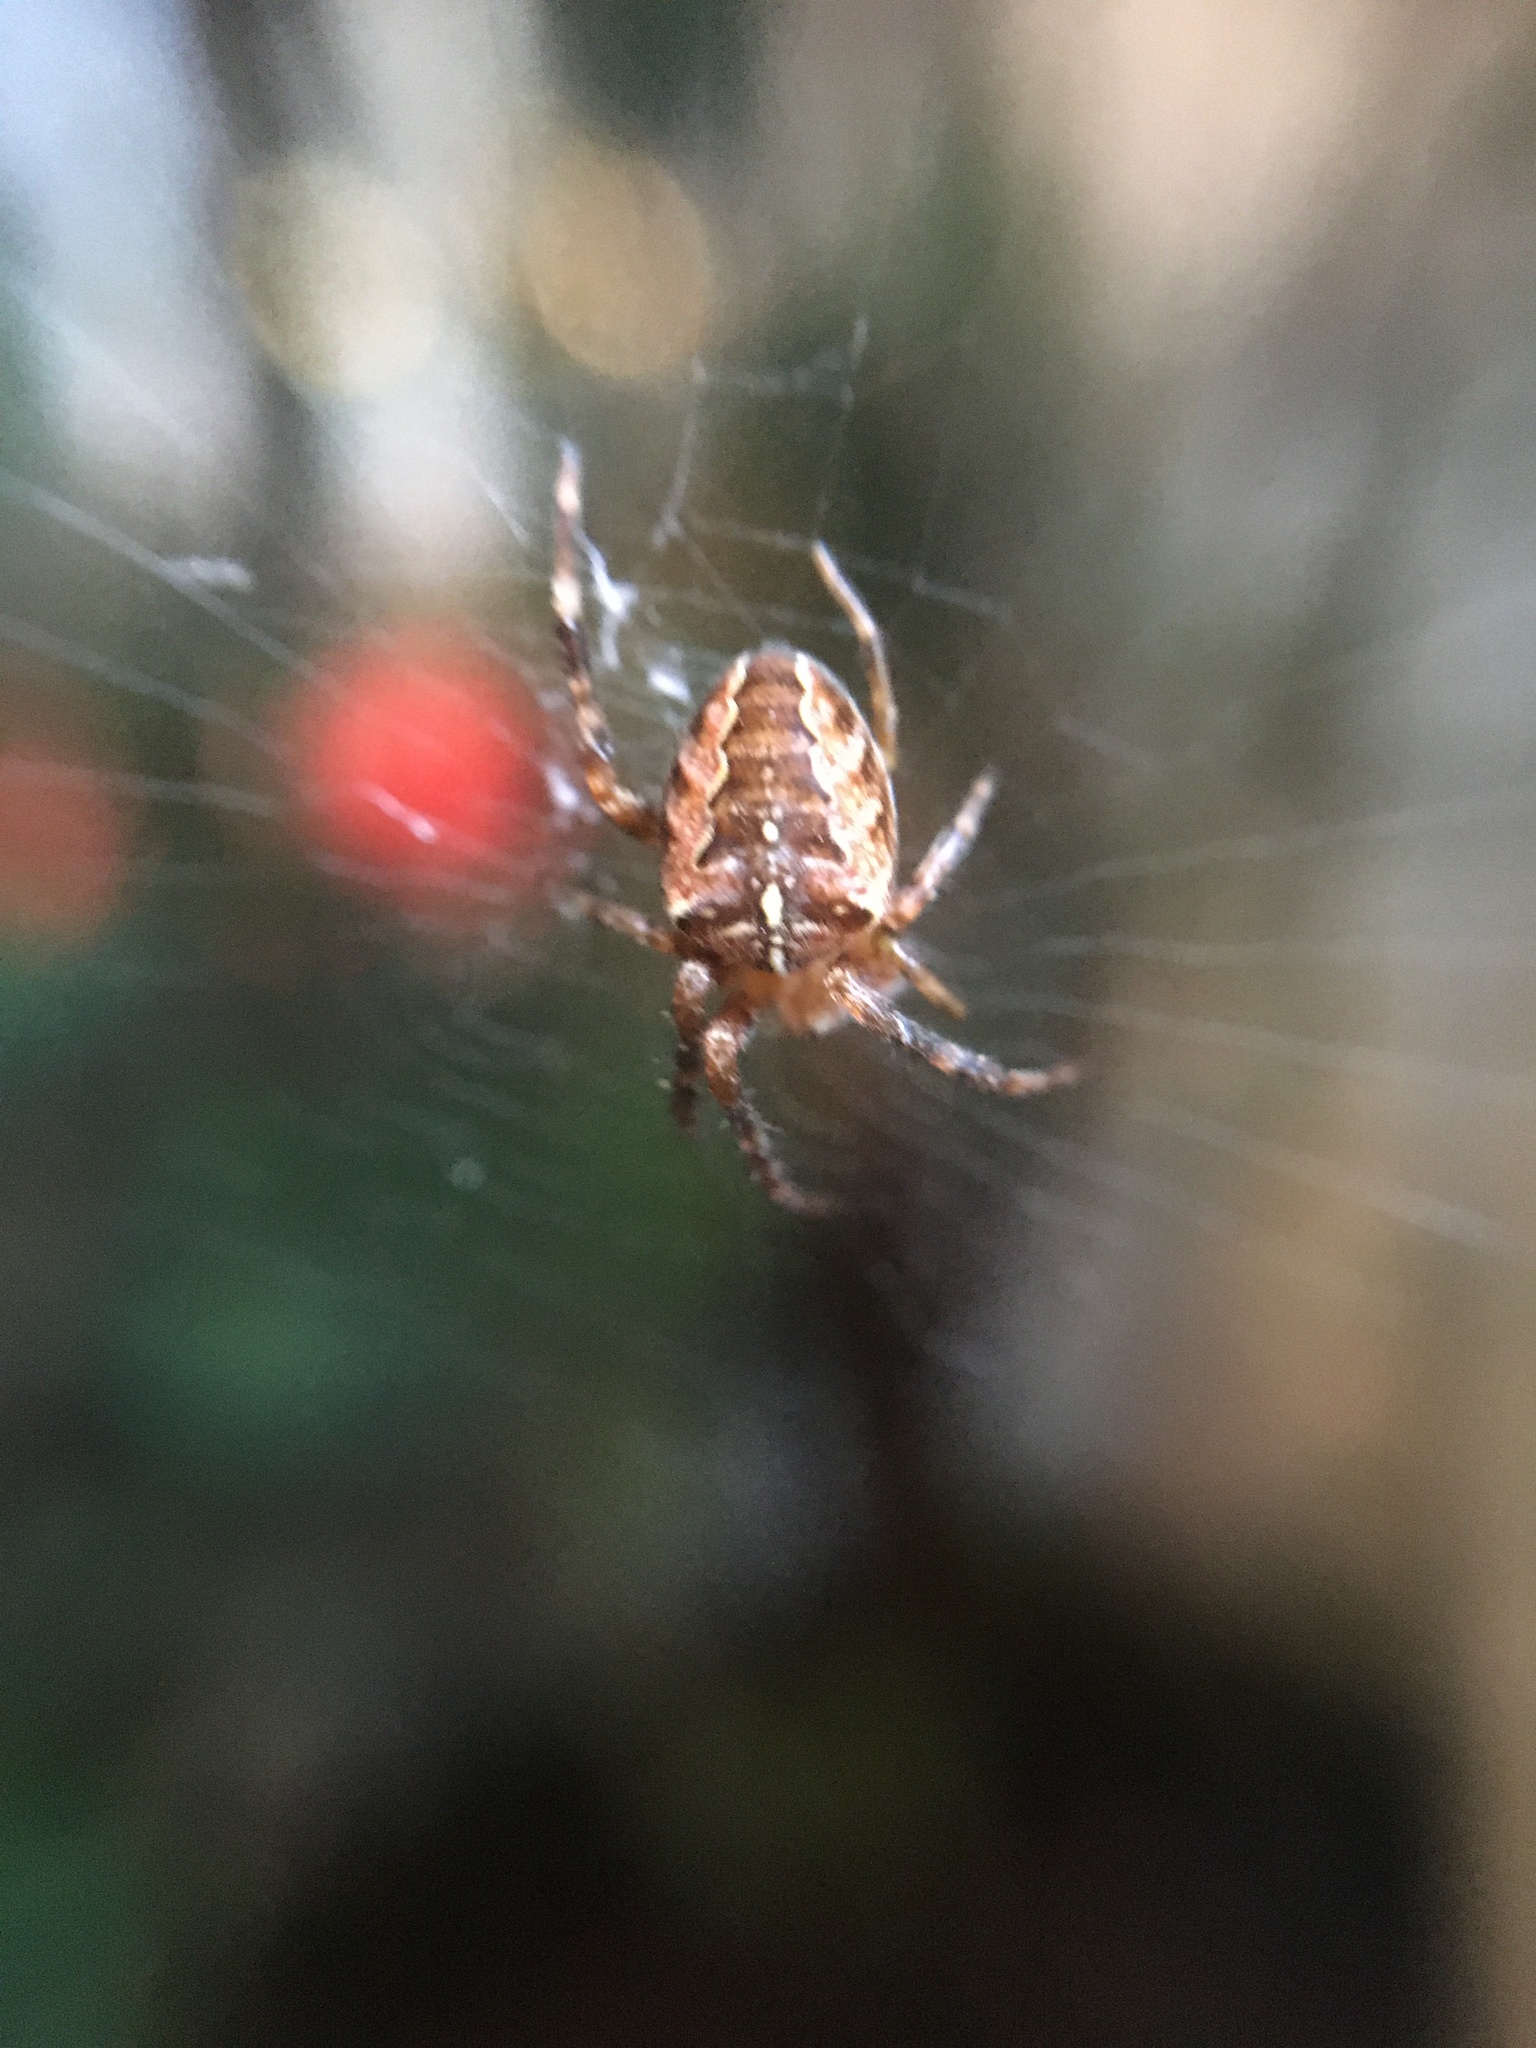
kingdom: Animalia
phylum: Arthropoda
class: Arachnida
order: Araneae
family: Araneidae
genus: Araneus
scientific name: Araneus diadematus
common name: Cross orbweaver
